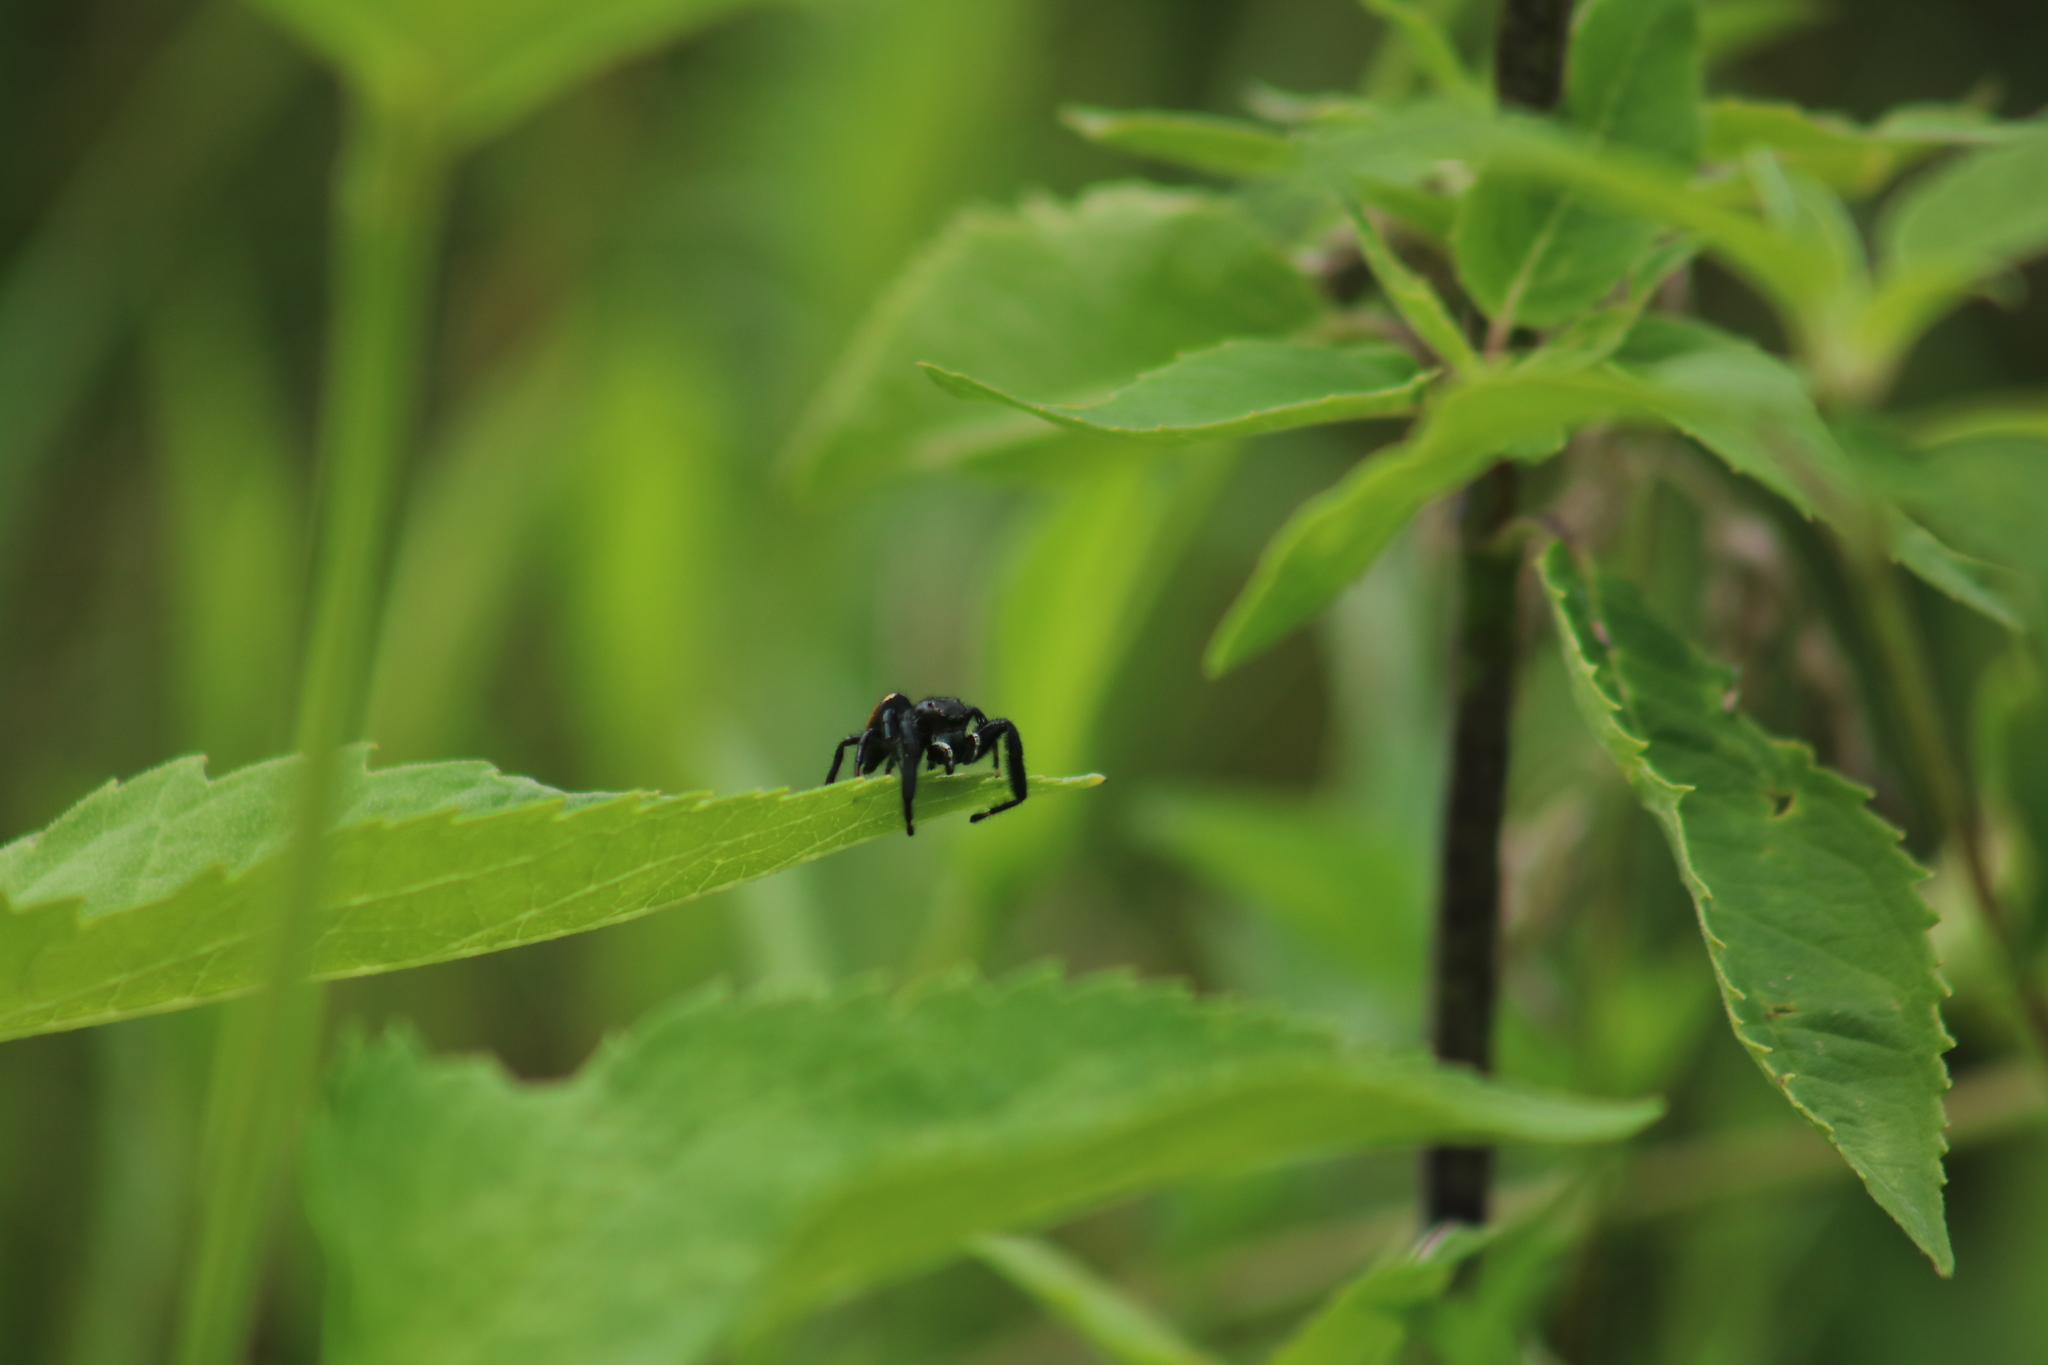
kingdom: Animalia
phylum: Arthropoda
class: Arachnida
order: Araneae
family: Salticidae
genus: Phidippus
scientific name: Phidippus clarus
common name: Brilliant jumping spider
